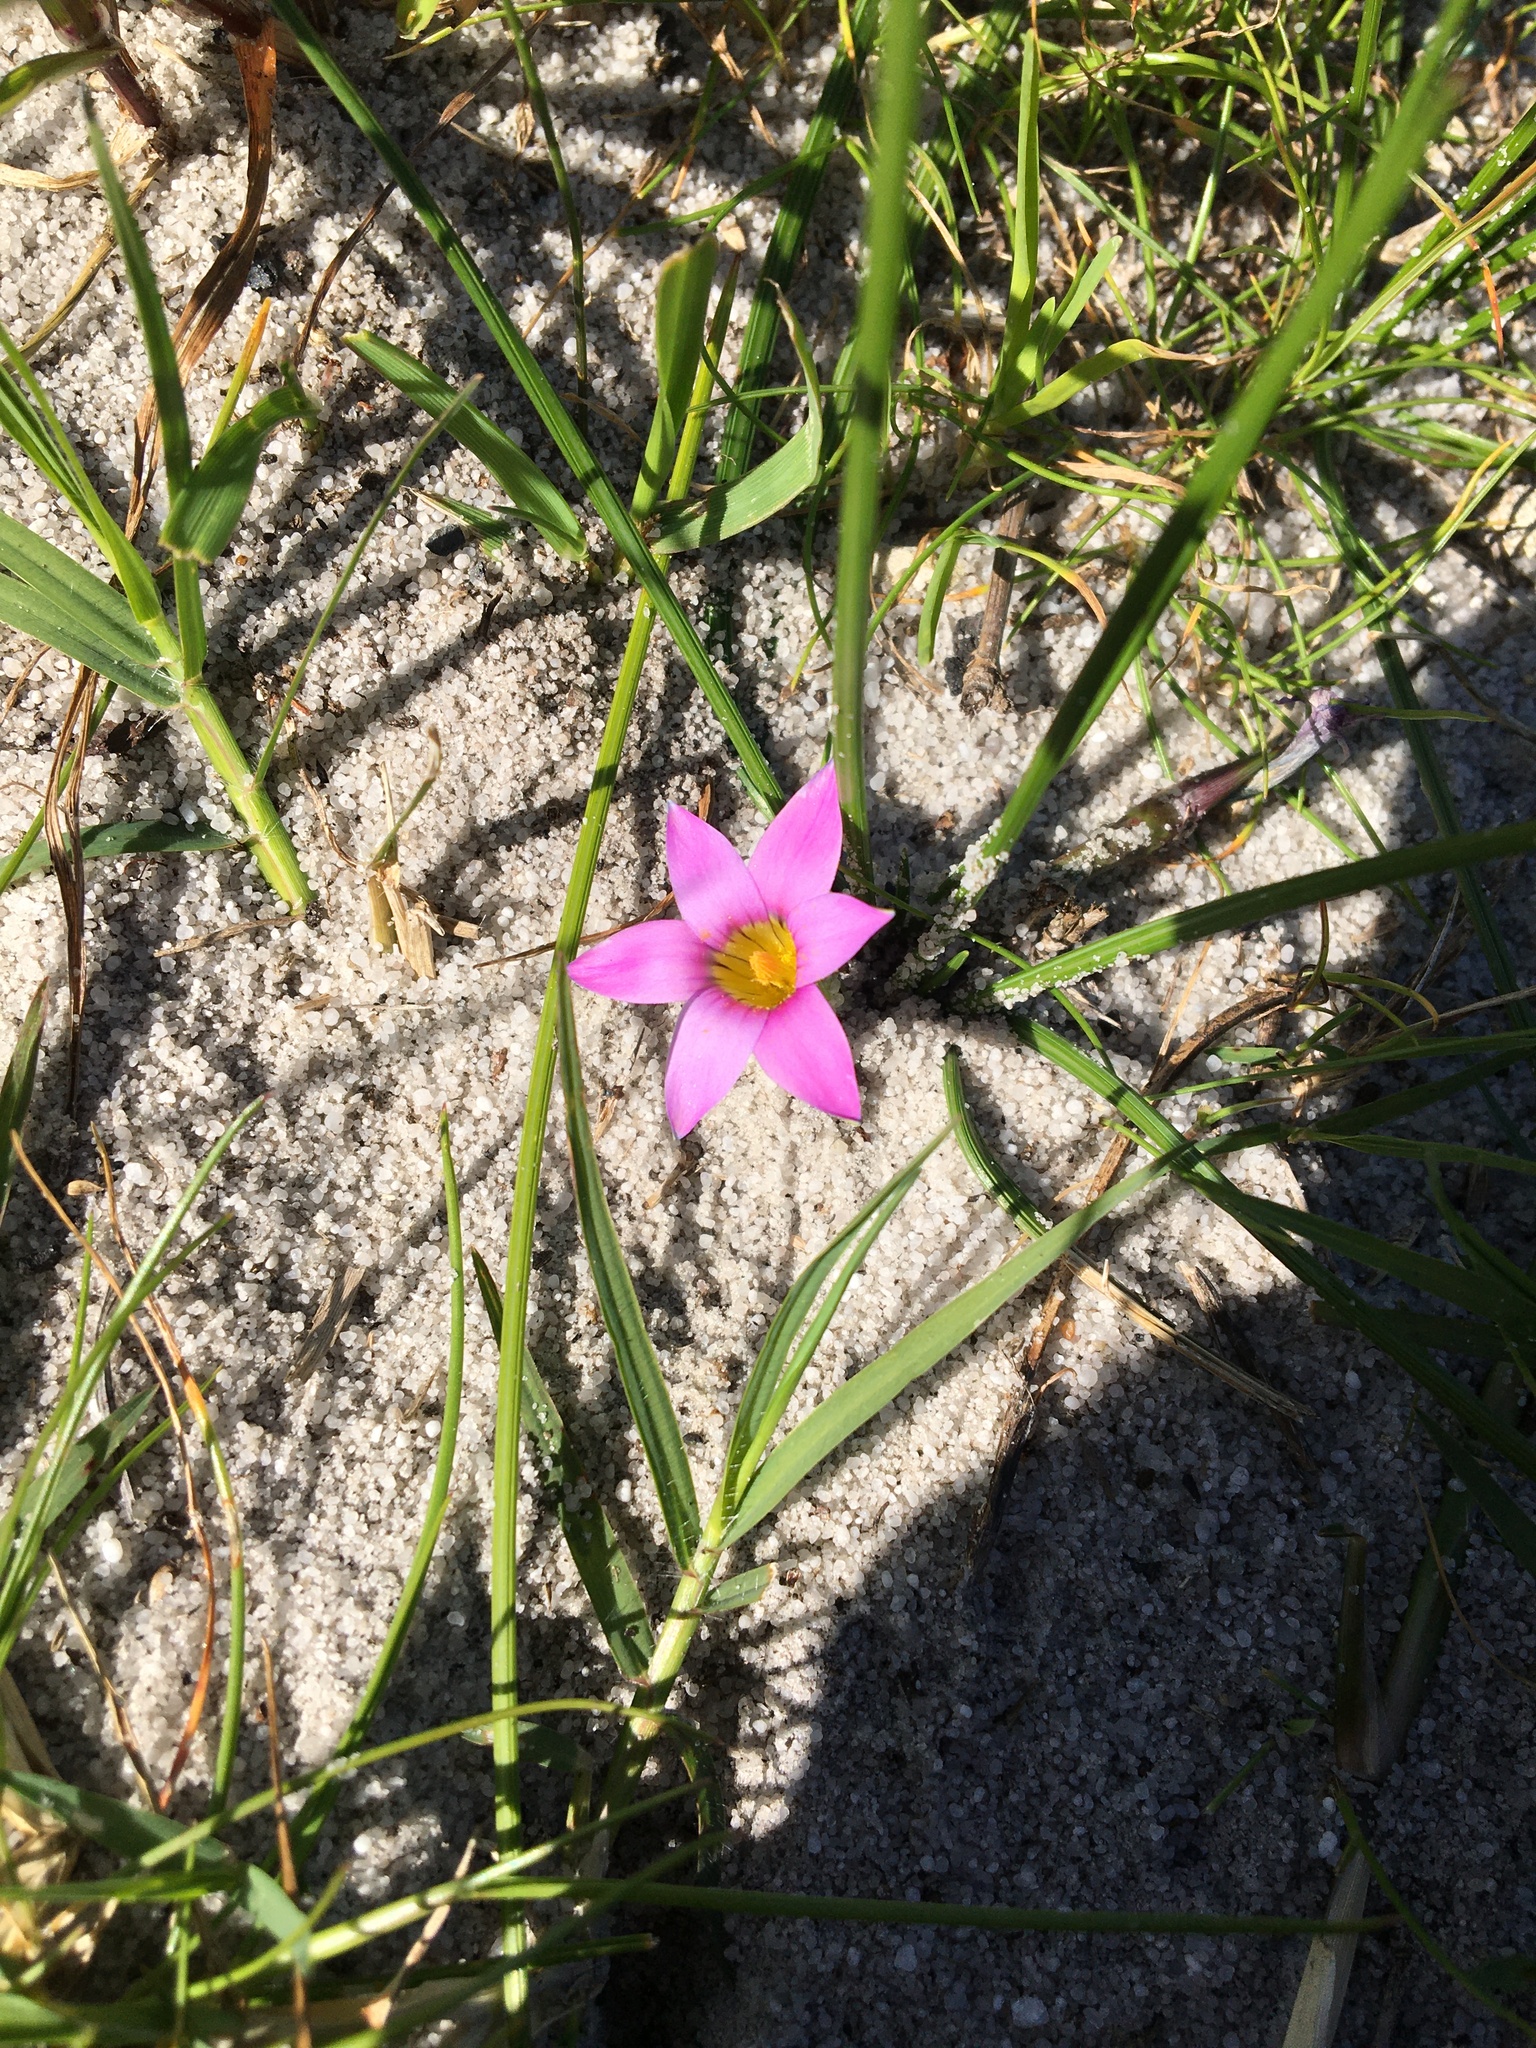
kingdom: Plantae
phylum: Tracheophyta
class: Liliopsida
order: Asparagales
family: Iridaceae
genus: Romulea
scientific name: Romulea rosea
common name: Oniongrass
